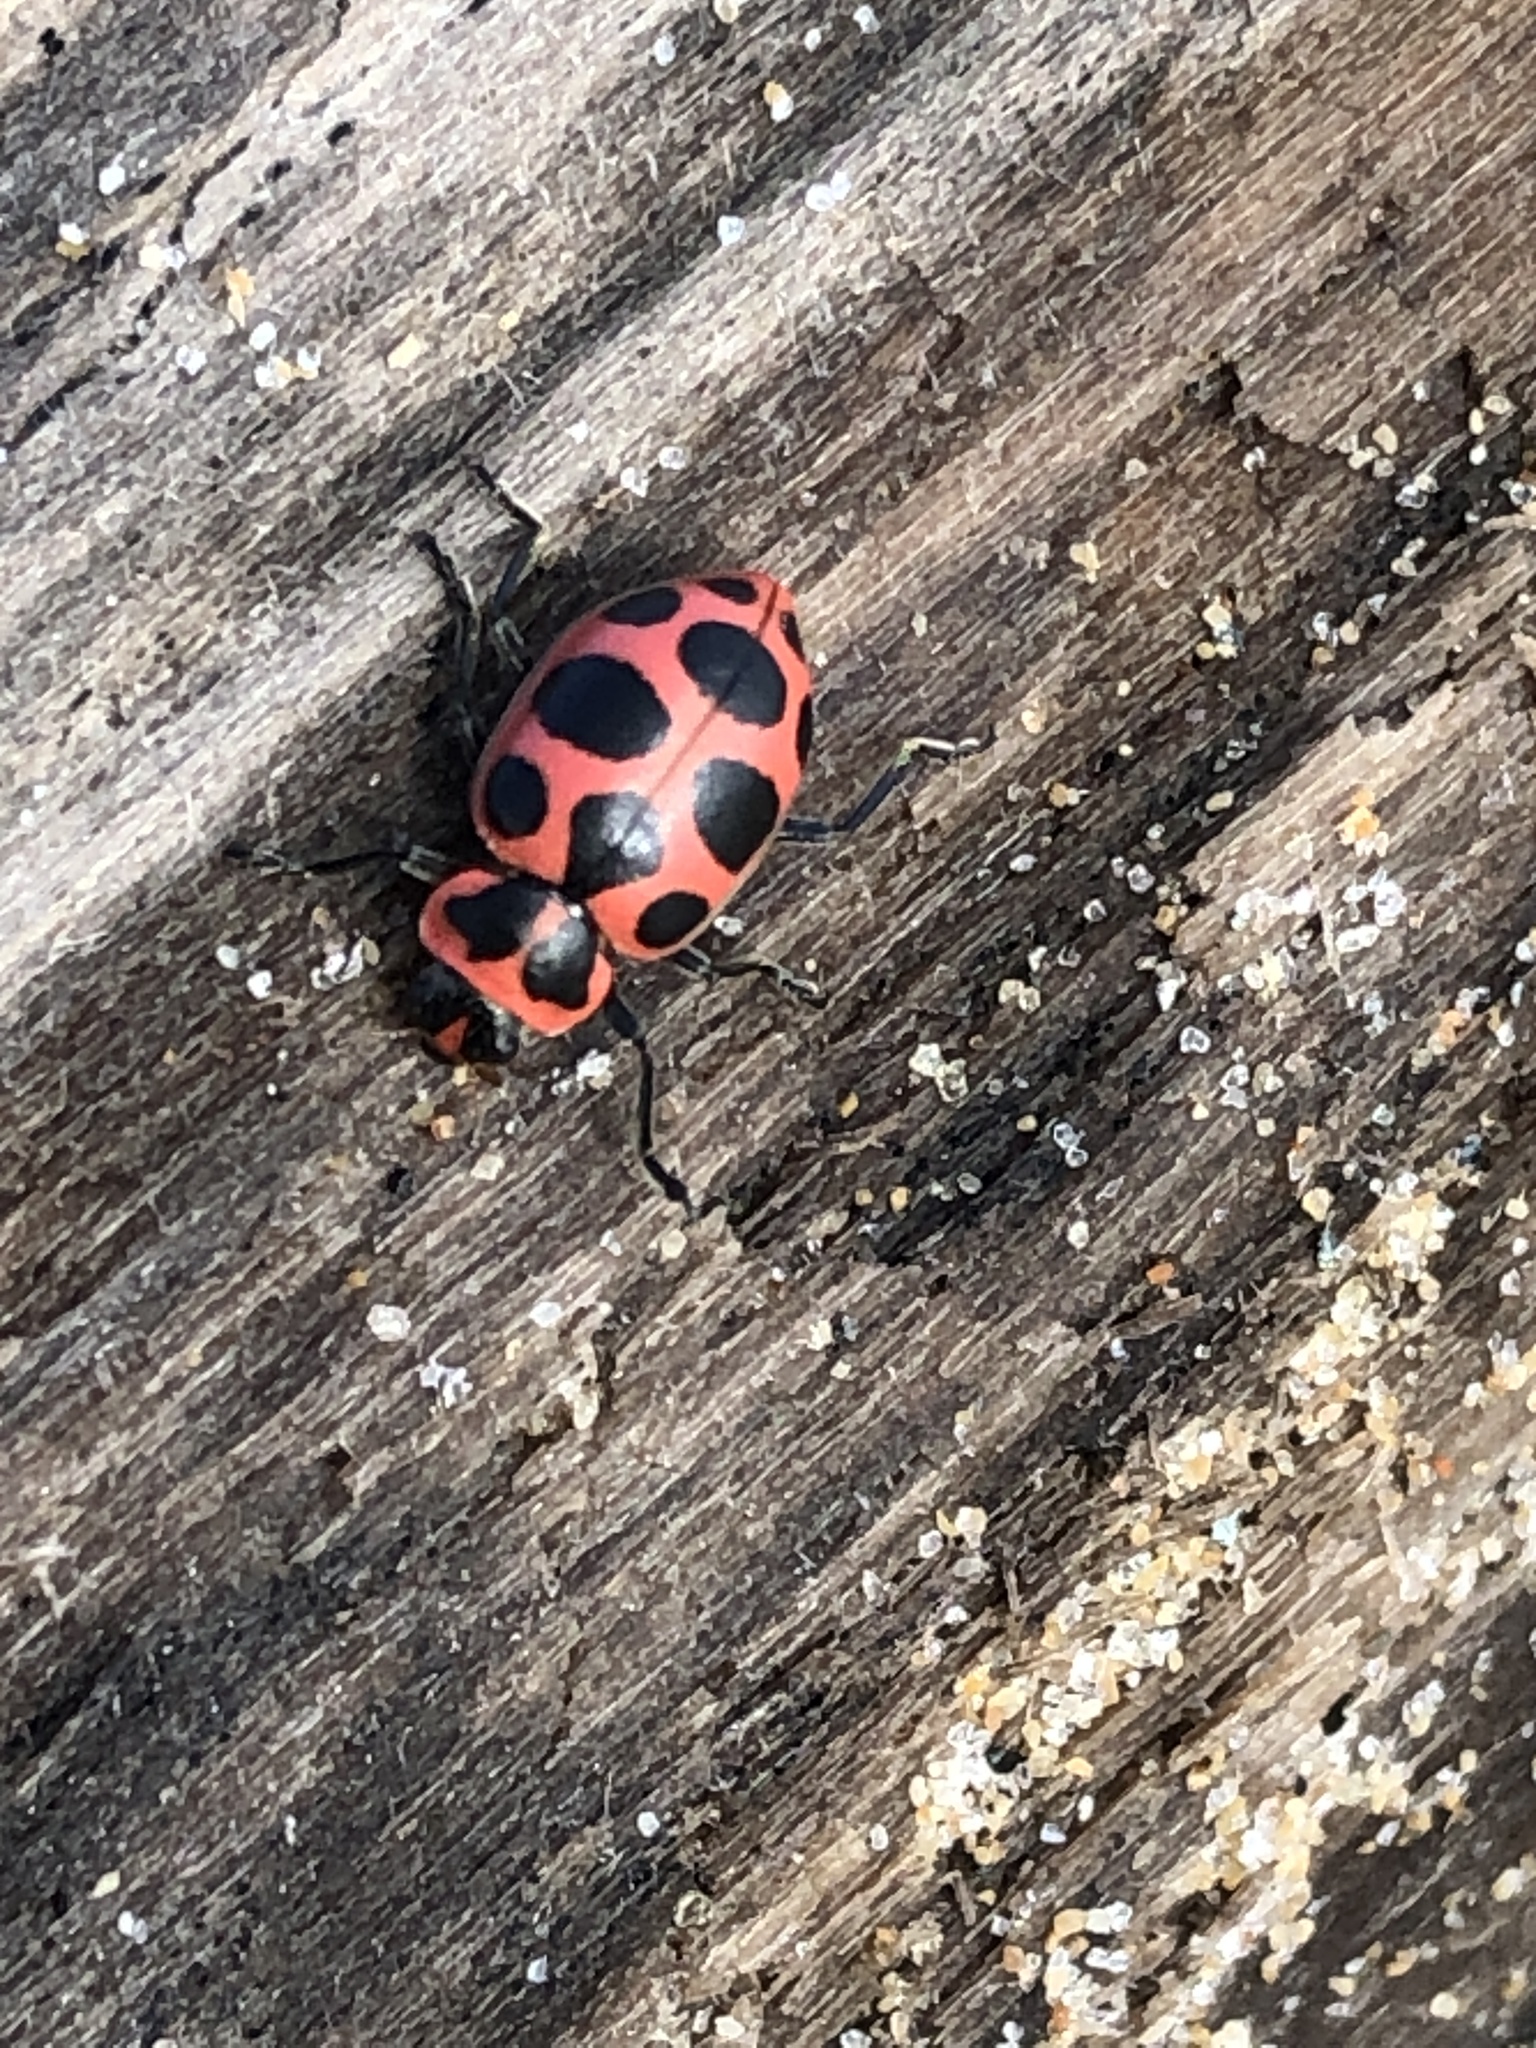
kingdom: Animalia
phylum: Arthropoda
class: Insecta
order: Coleoptera
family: Coccinellidae
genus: Coleomegilla
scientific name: Coleomegilla maculata
